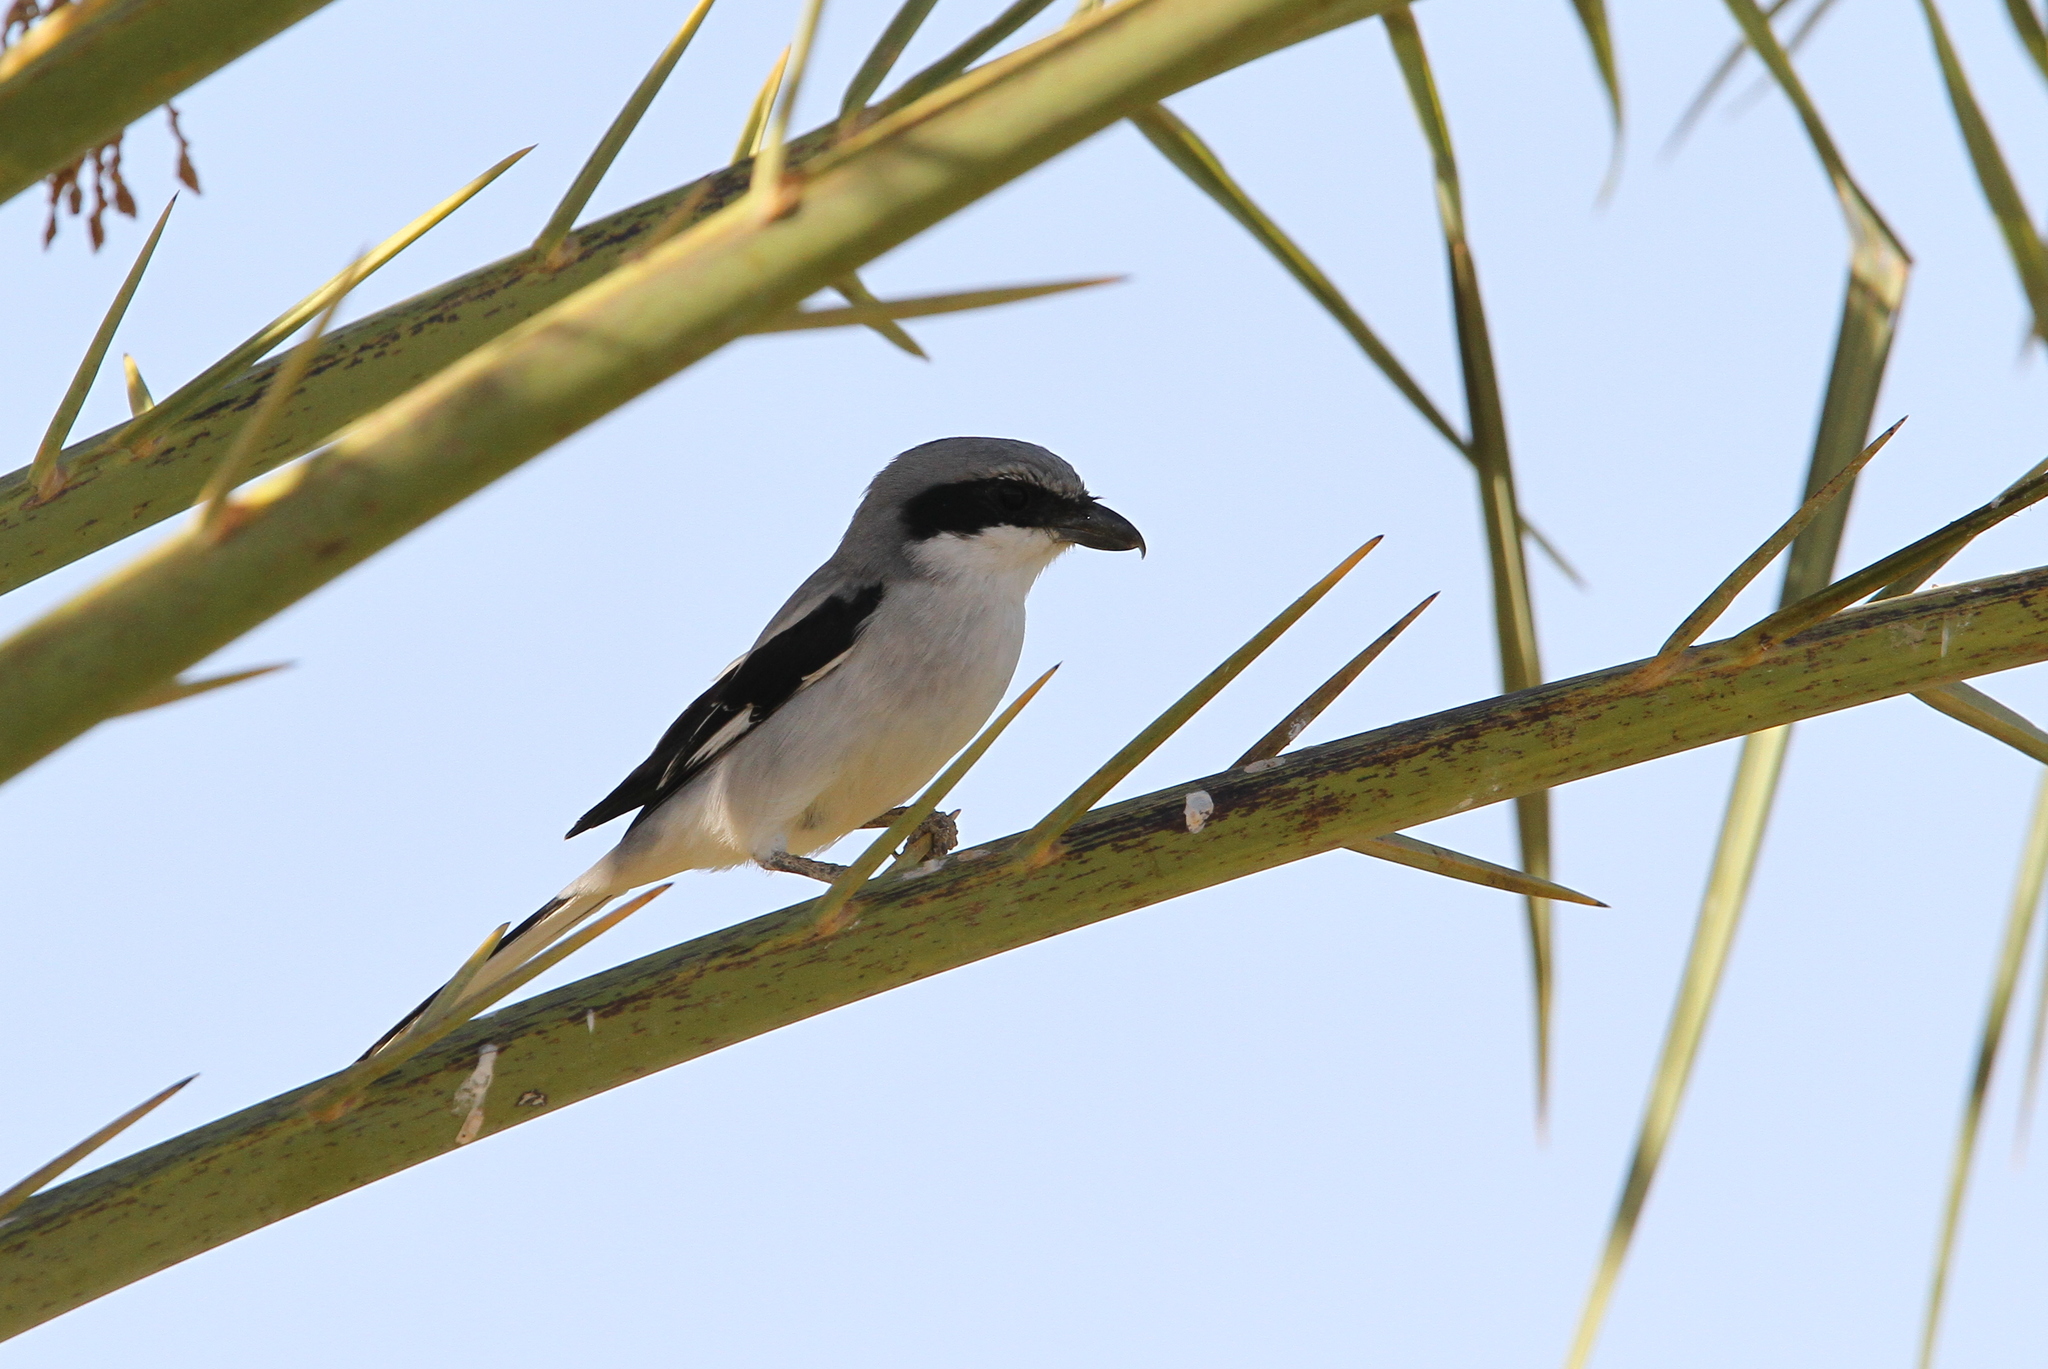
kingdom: Animalia
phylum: Chordata
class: Aves
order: Passeriformes
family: Laniidae
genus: Lanius
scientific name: Lanius excubitor
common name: Great grey shrike
